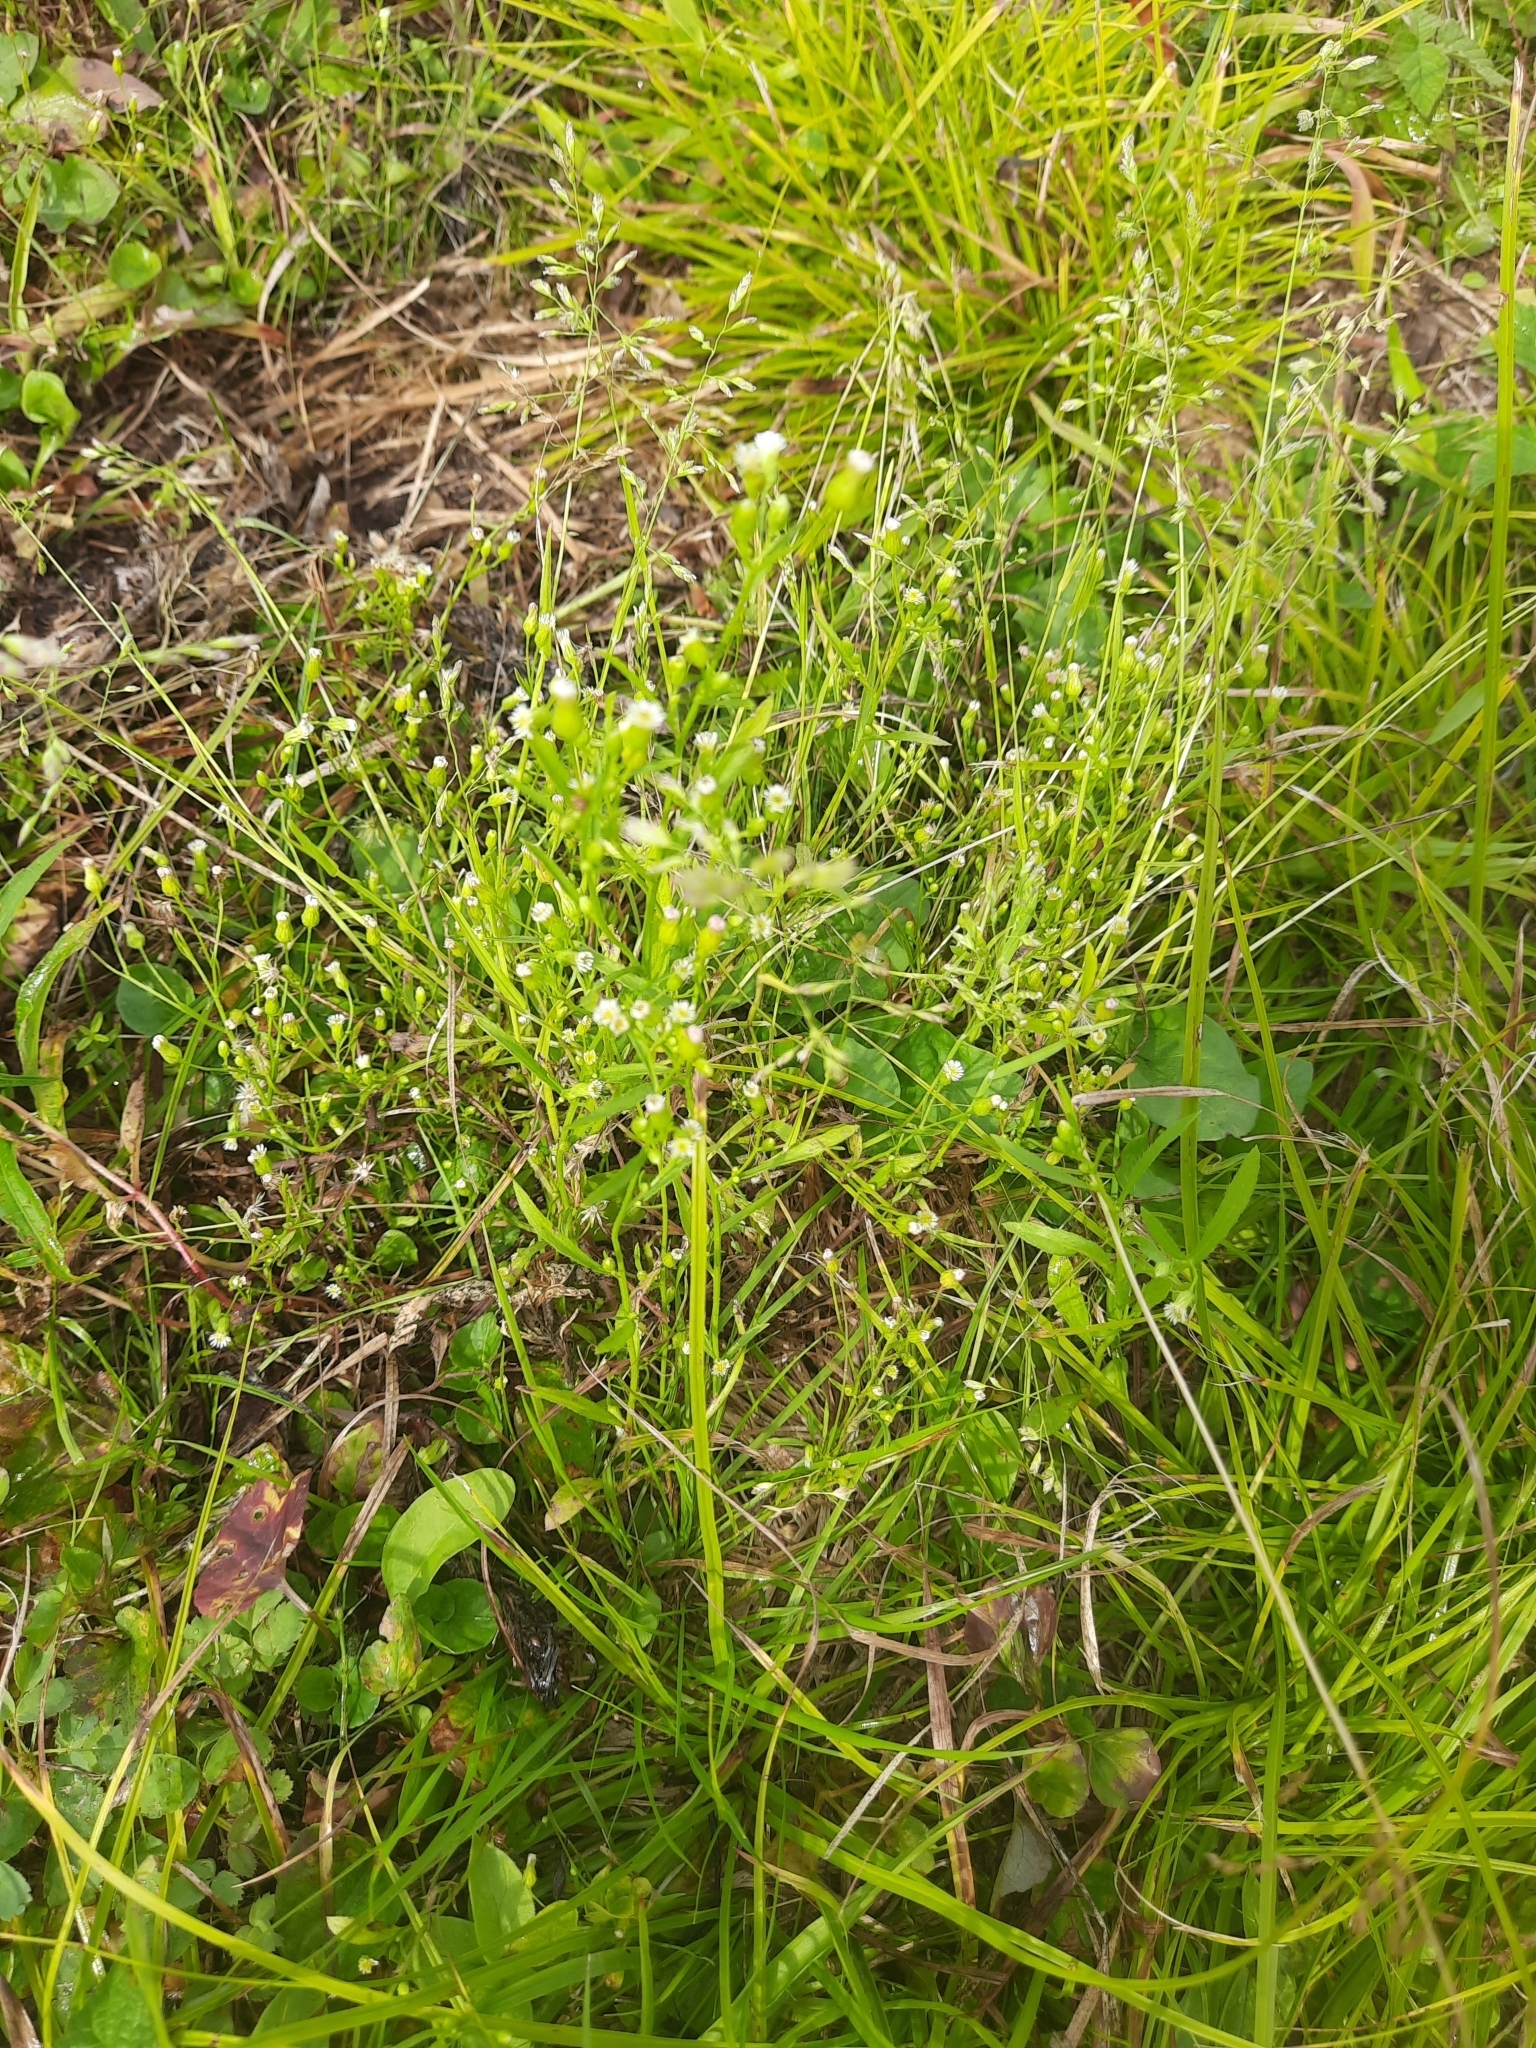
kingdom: Plantae
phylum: Tracheophyta
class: Magnoliopsida
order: Asterales
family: Asteraceae
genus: Erigeron
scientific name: Erigeron canadensis
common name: Canadian fleabane
